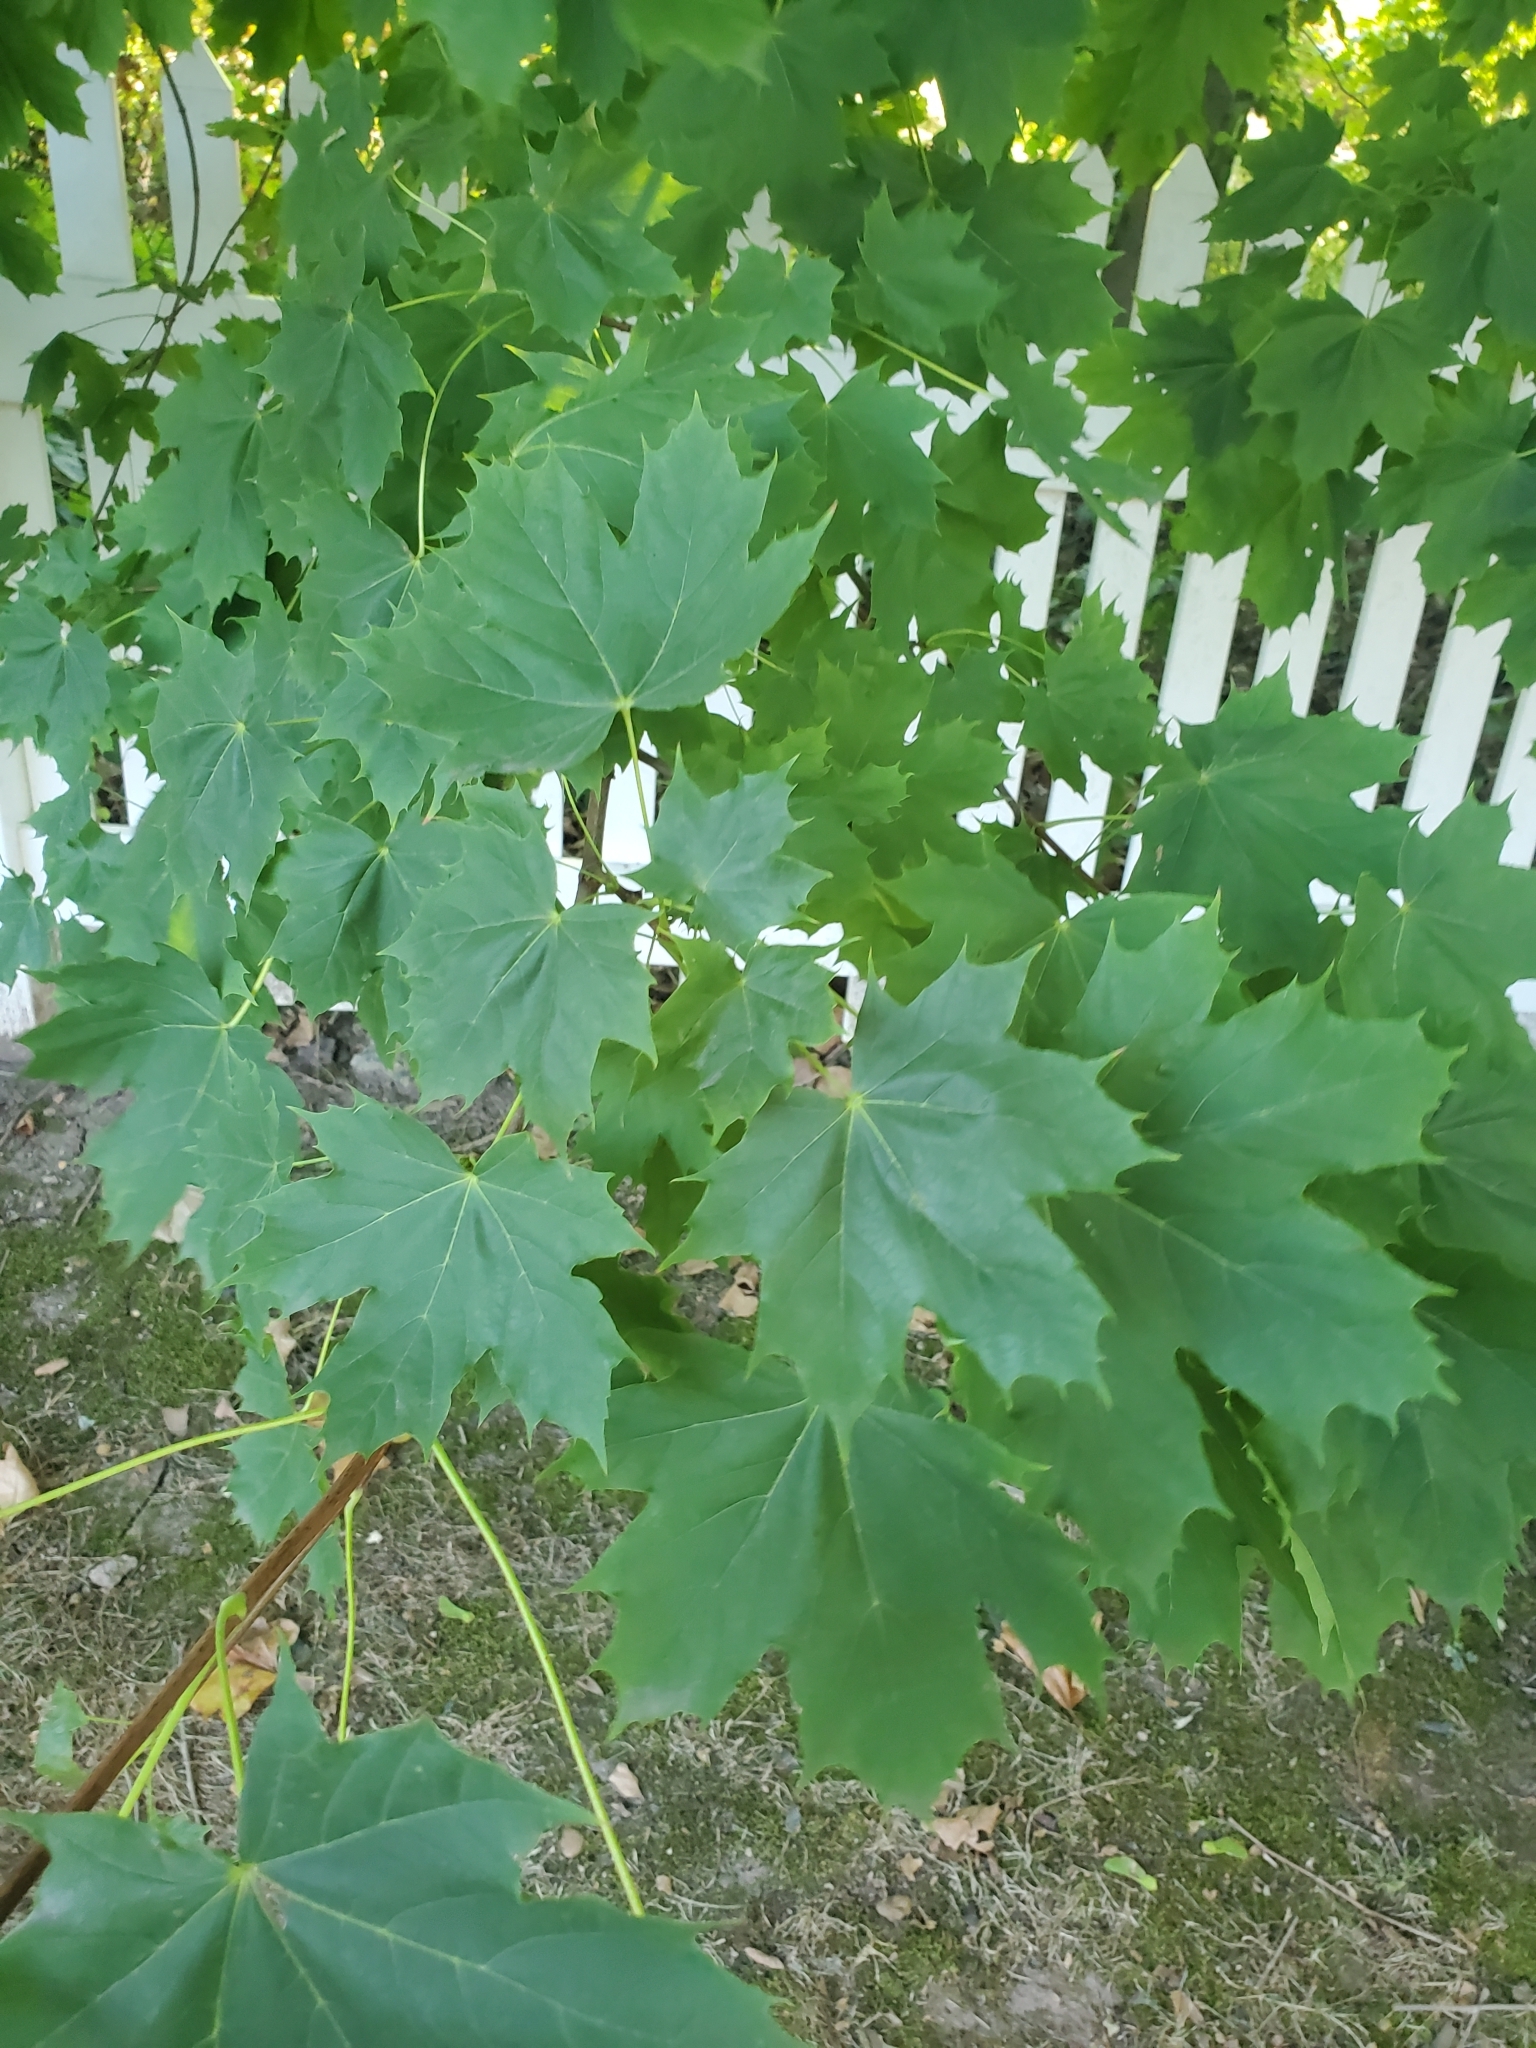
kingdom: Plantae
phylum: Tracheophyta
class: Magnoliopsida
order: Sapindales
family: Sapindaceae
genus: Acer
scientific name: Acer platanoides
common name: Norway maple
